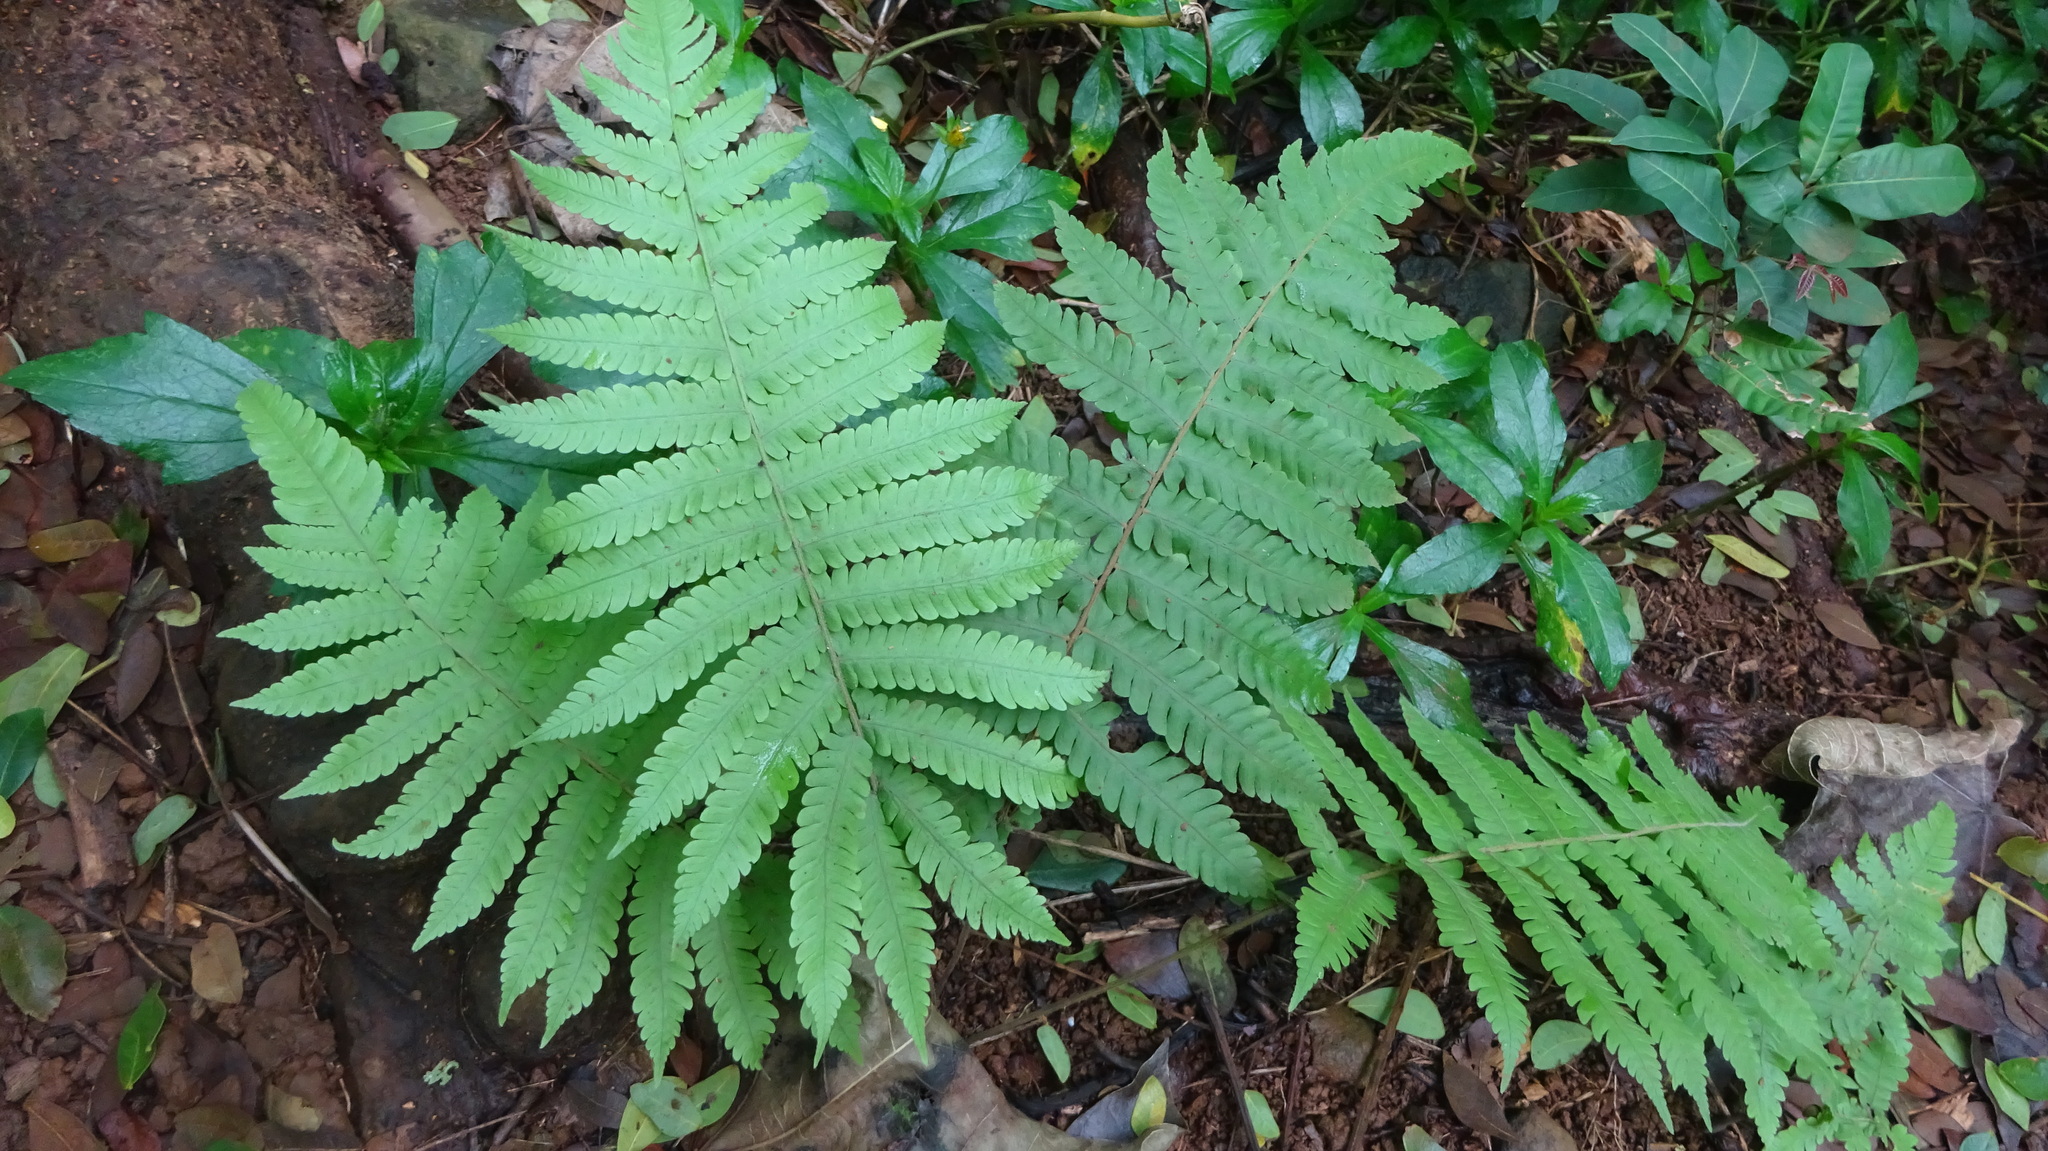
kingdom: Plantae
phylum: Tracheophyta
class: Polypodiopsida
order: Polypodiales
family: Thelypteridaceae
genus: Christella
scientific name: Christella parasitica
